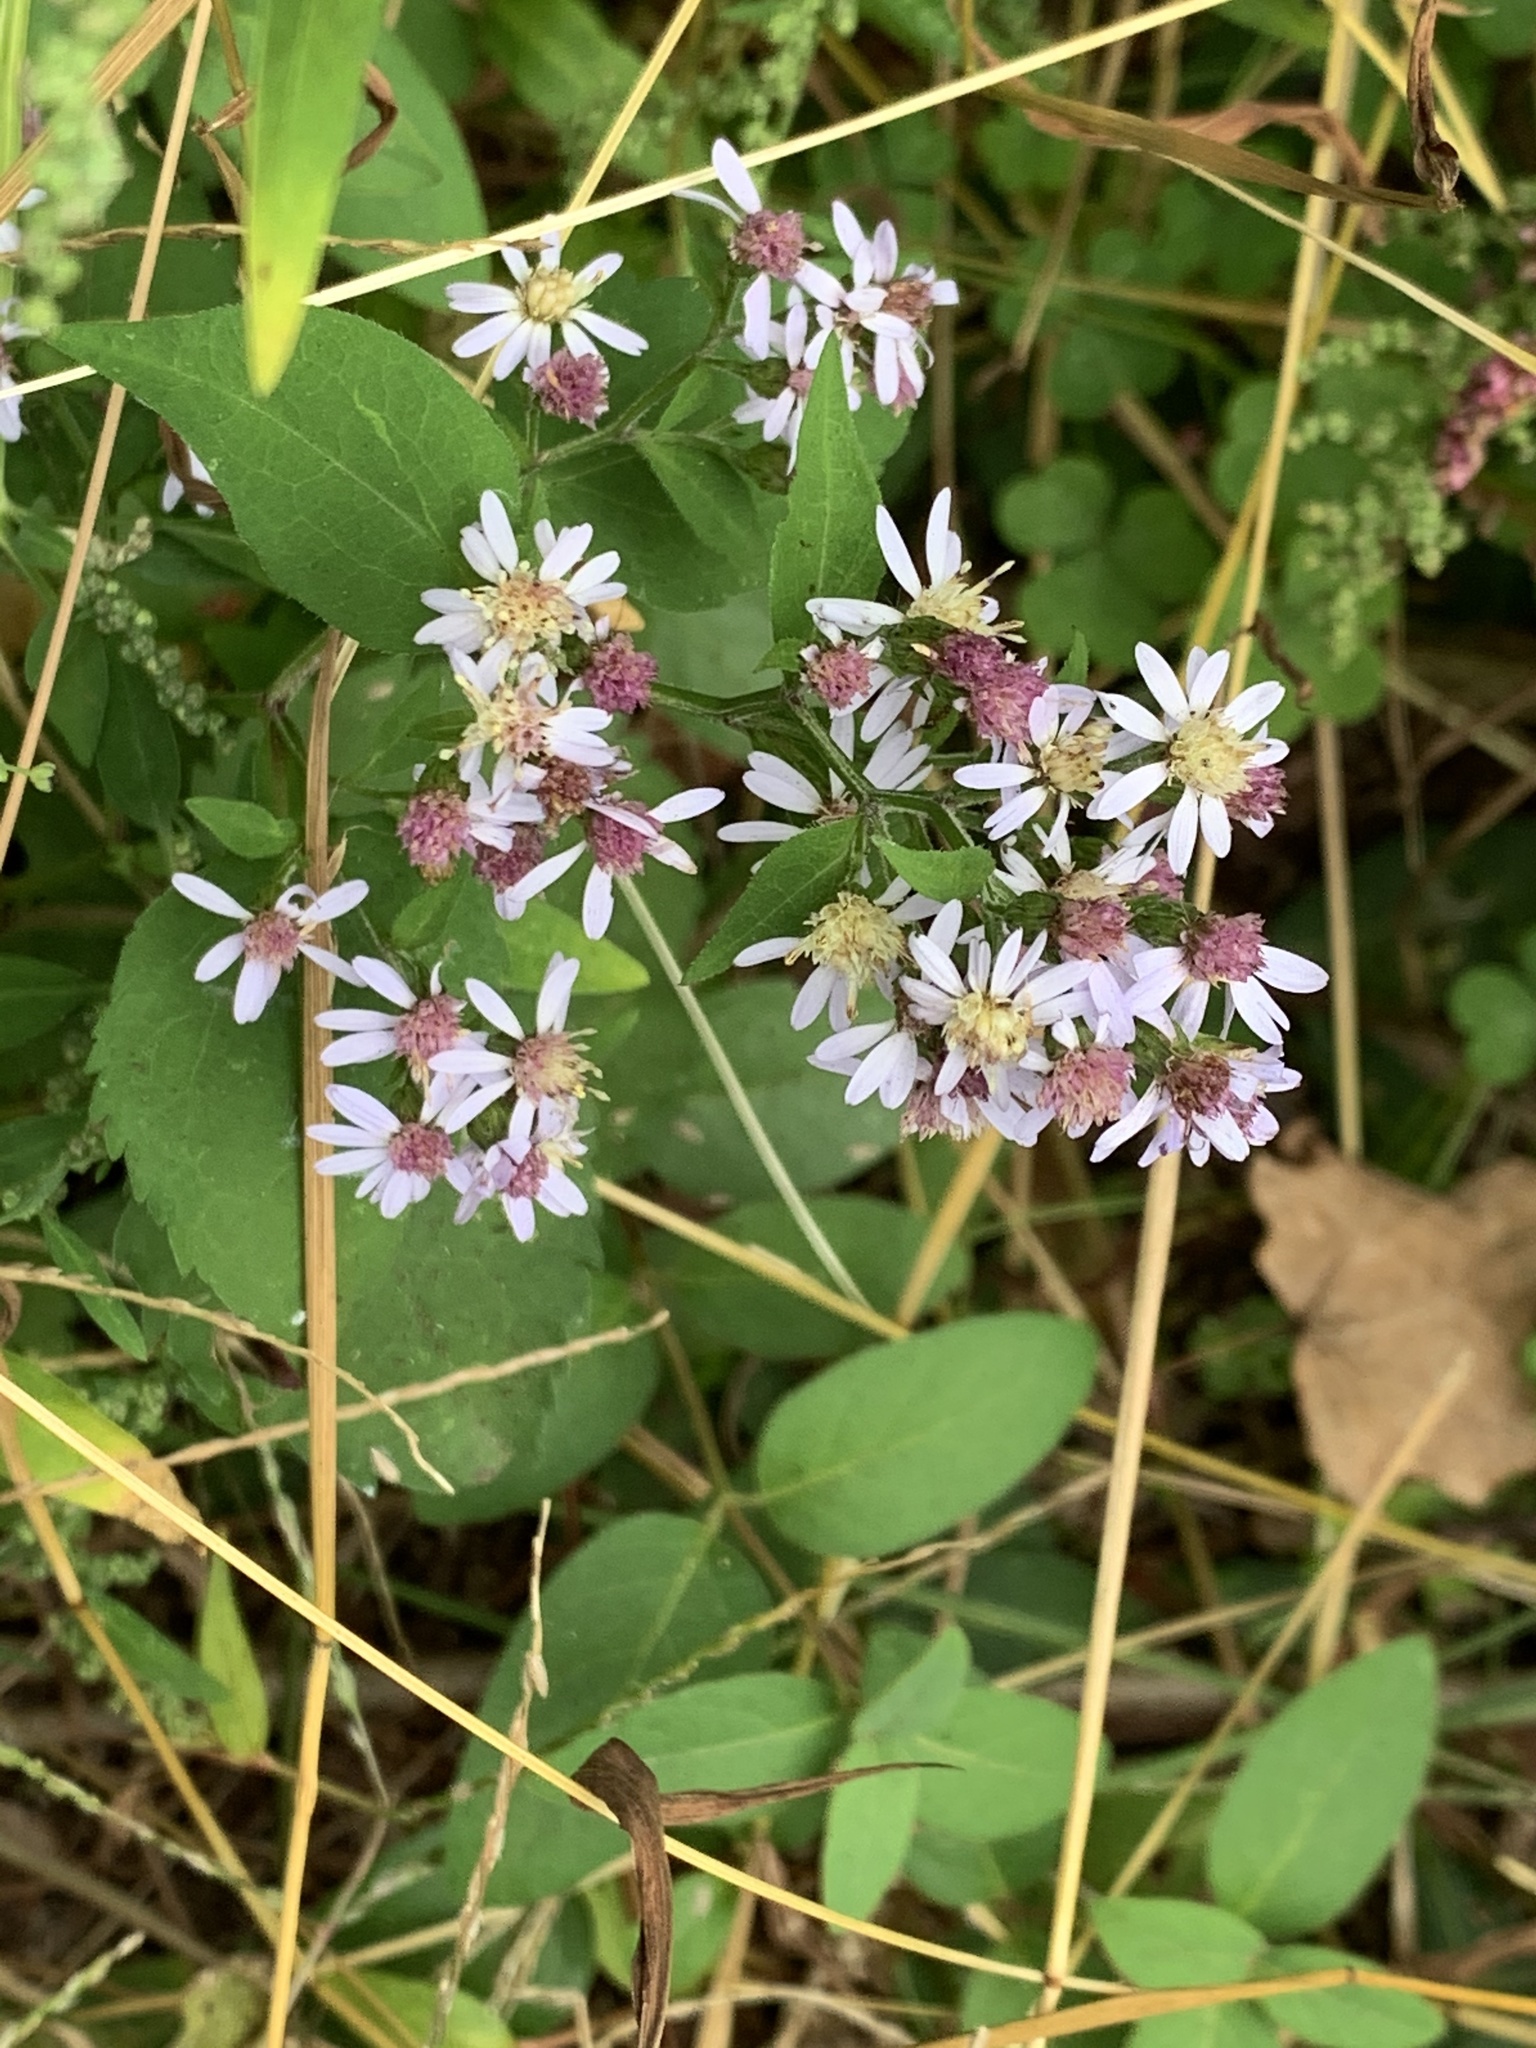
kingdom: Plantae
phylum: Tracheophyta
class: Magnoliopsida
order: Asterales
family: Asteraceae
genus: Symphyotrichum
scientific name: Symphyotrichum cordifolium
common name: Beeweed
